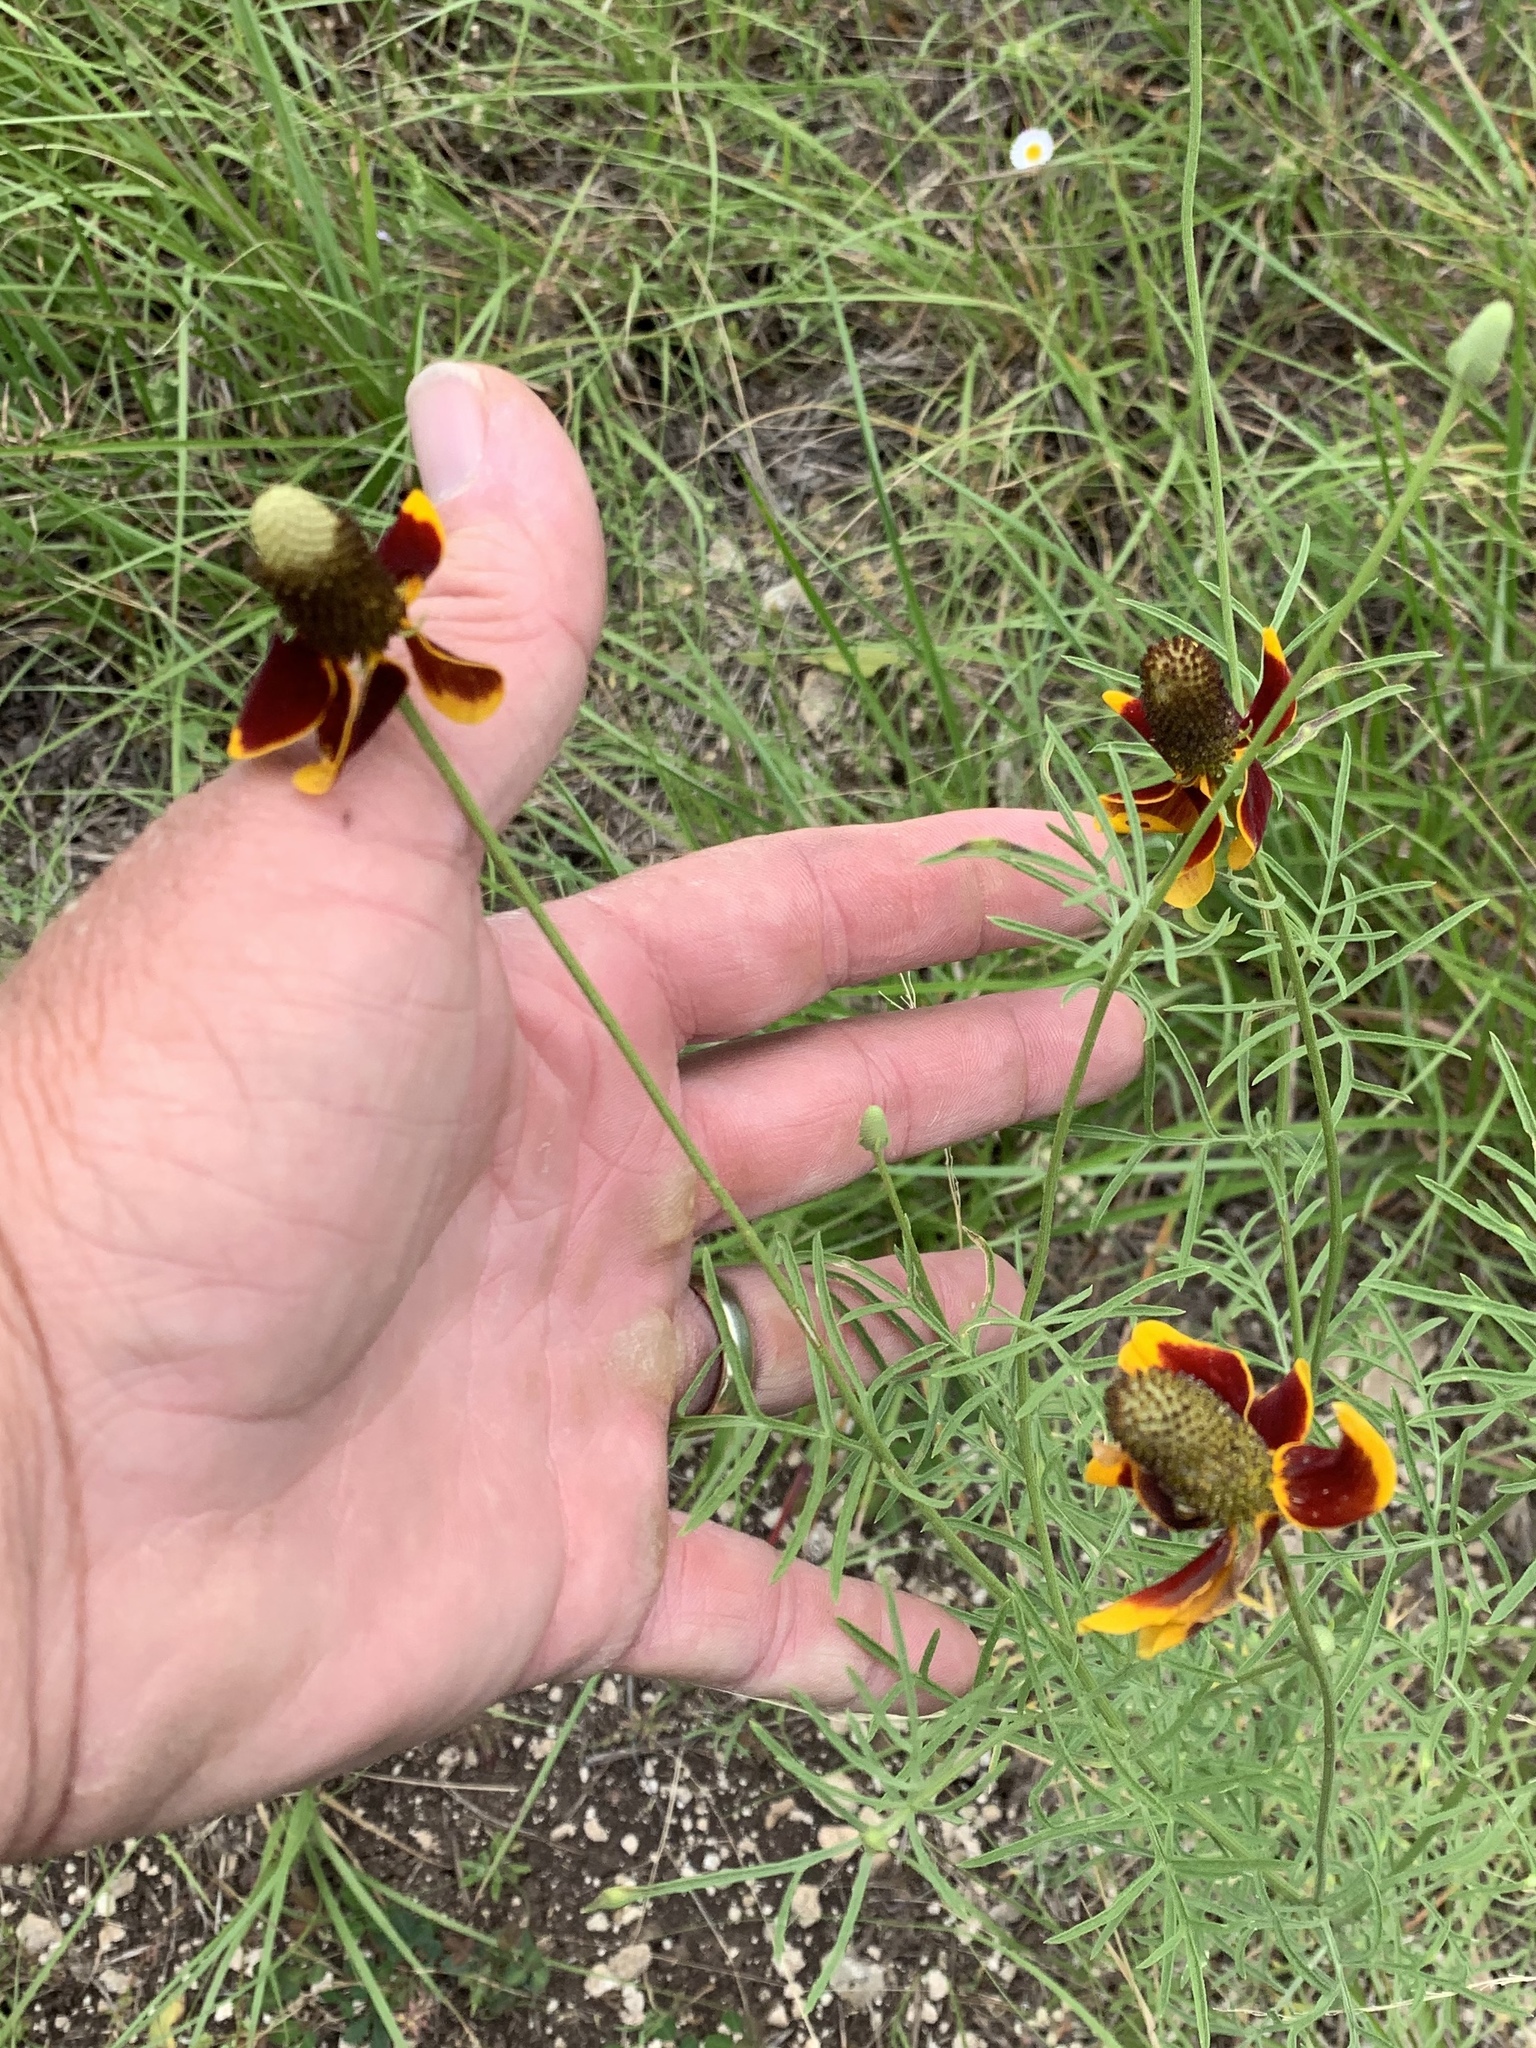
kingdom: Plantae
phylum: Tracheophyta
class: Magnoliopsida
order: Asterales
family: Asteraceae
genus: Ratibida
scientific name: Ratibida columnifera
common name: Prairie coneflower
